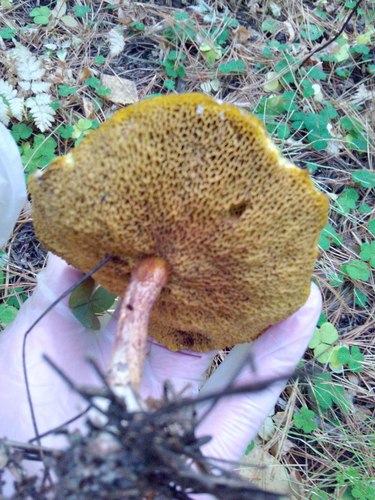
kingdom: Fungi
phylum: Basidiomycota
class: Agaricomycetes
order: Boletales
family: Suillaceae
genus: Suillus
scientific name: Suillus americanus
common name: Chicken fat mushroom
